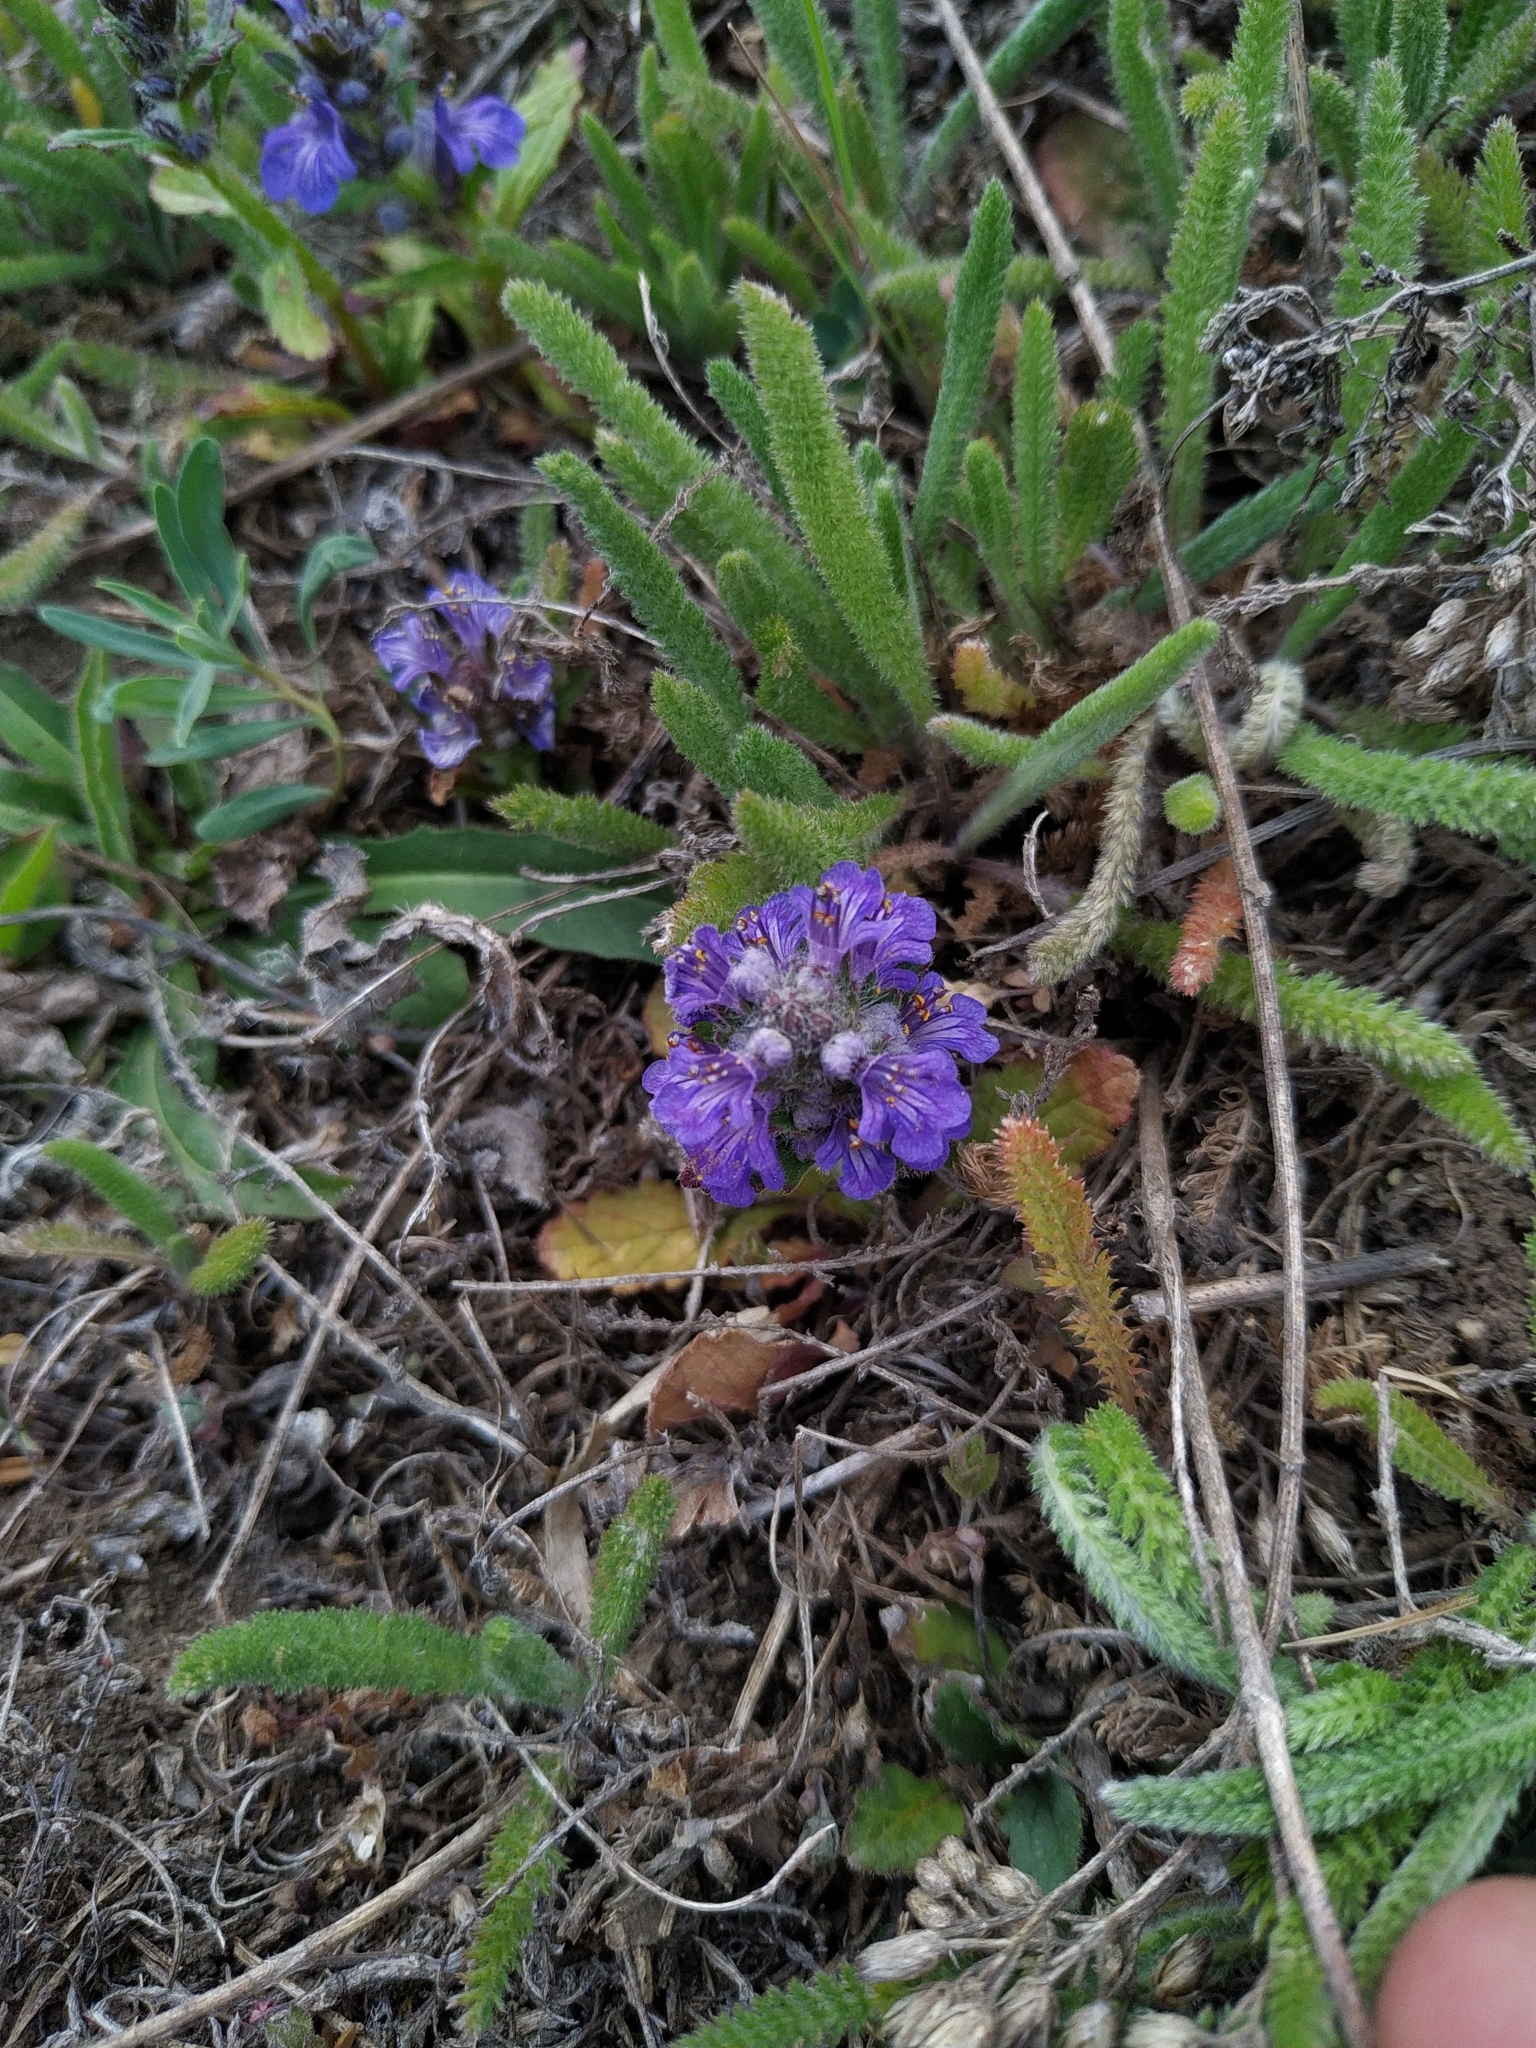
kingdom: Plantae
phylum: Tracheophyta
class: Magnoliopsida
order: Lamiales
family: Lamiaceae
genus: Ajuga
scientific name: Ajuga genevensis
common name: Blue bugle
